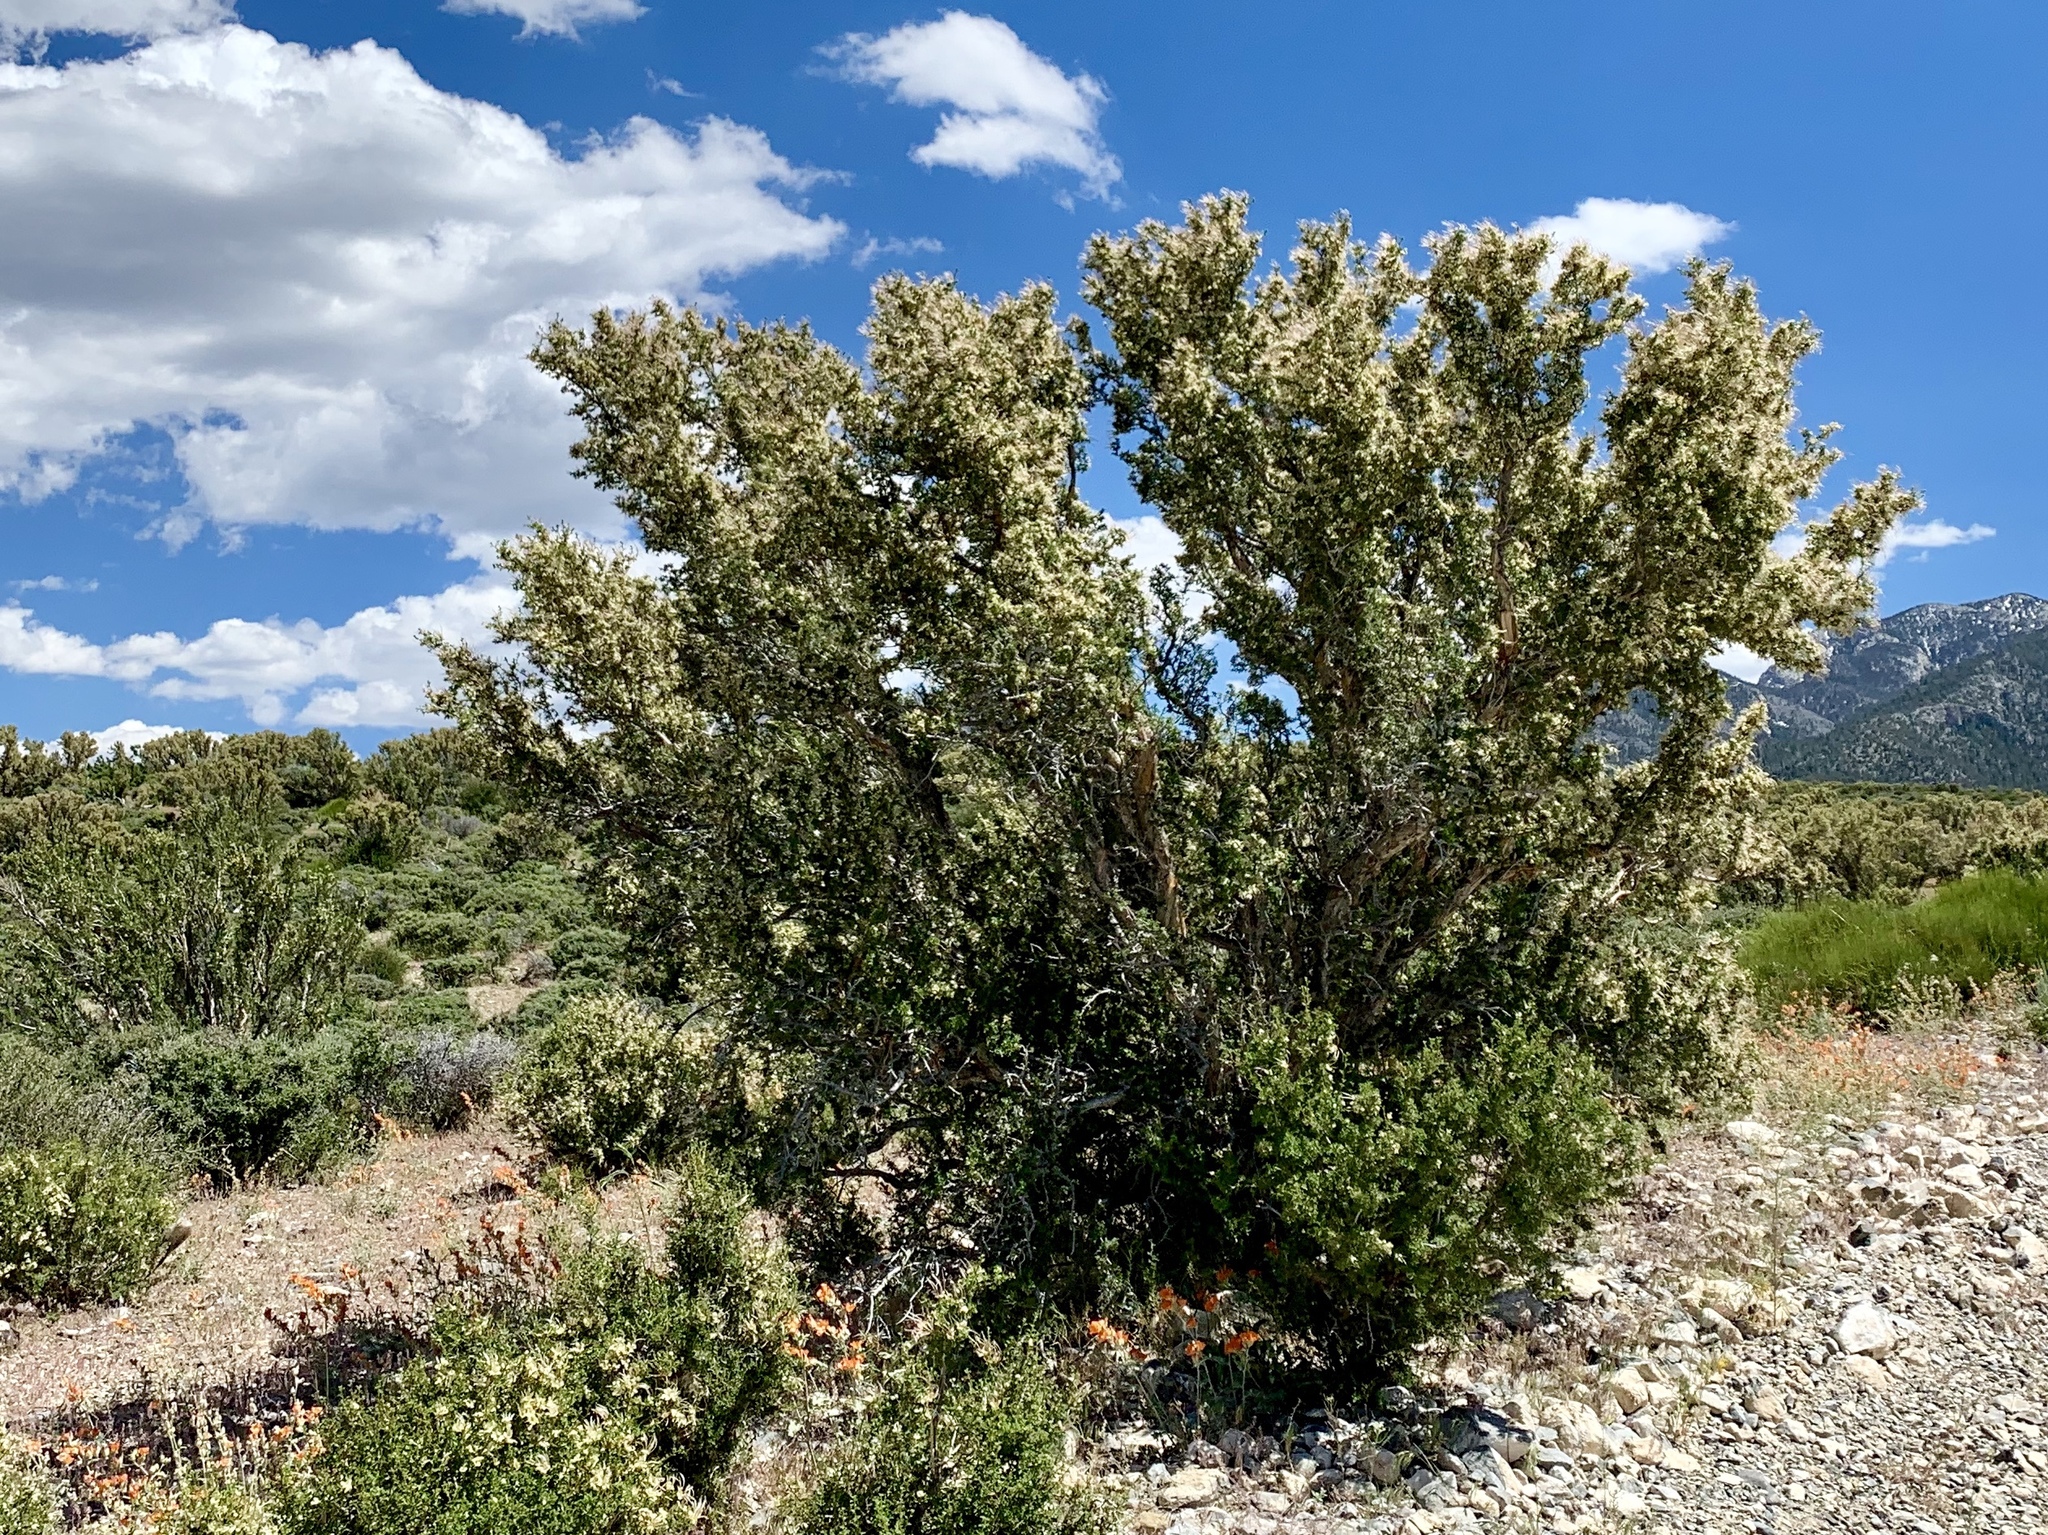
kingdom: Plantae
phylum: Tracheophyta
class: Magnoliopsida
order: Rosales
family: Rosaceae
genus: Purshia
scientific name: Purshia stansburiana
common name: Stansbury's cliffrose
